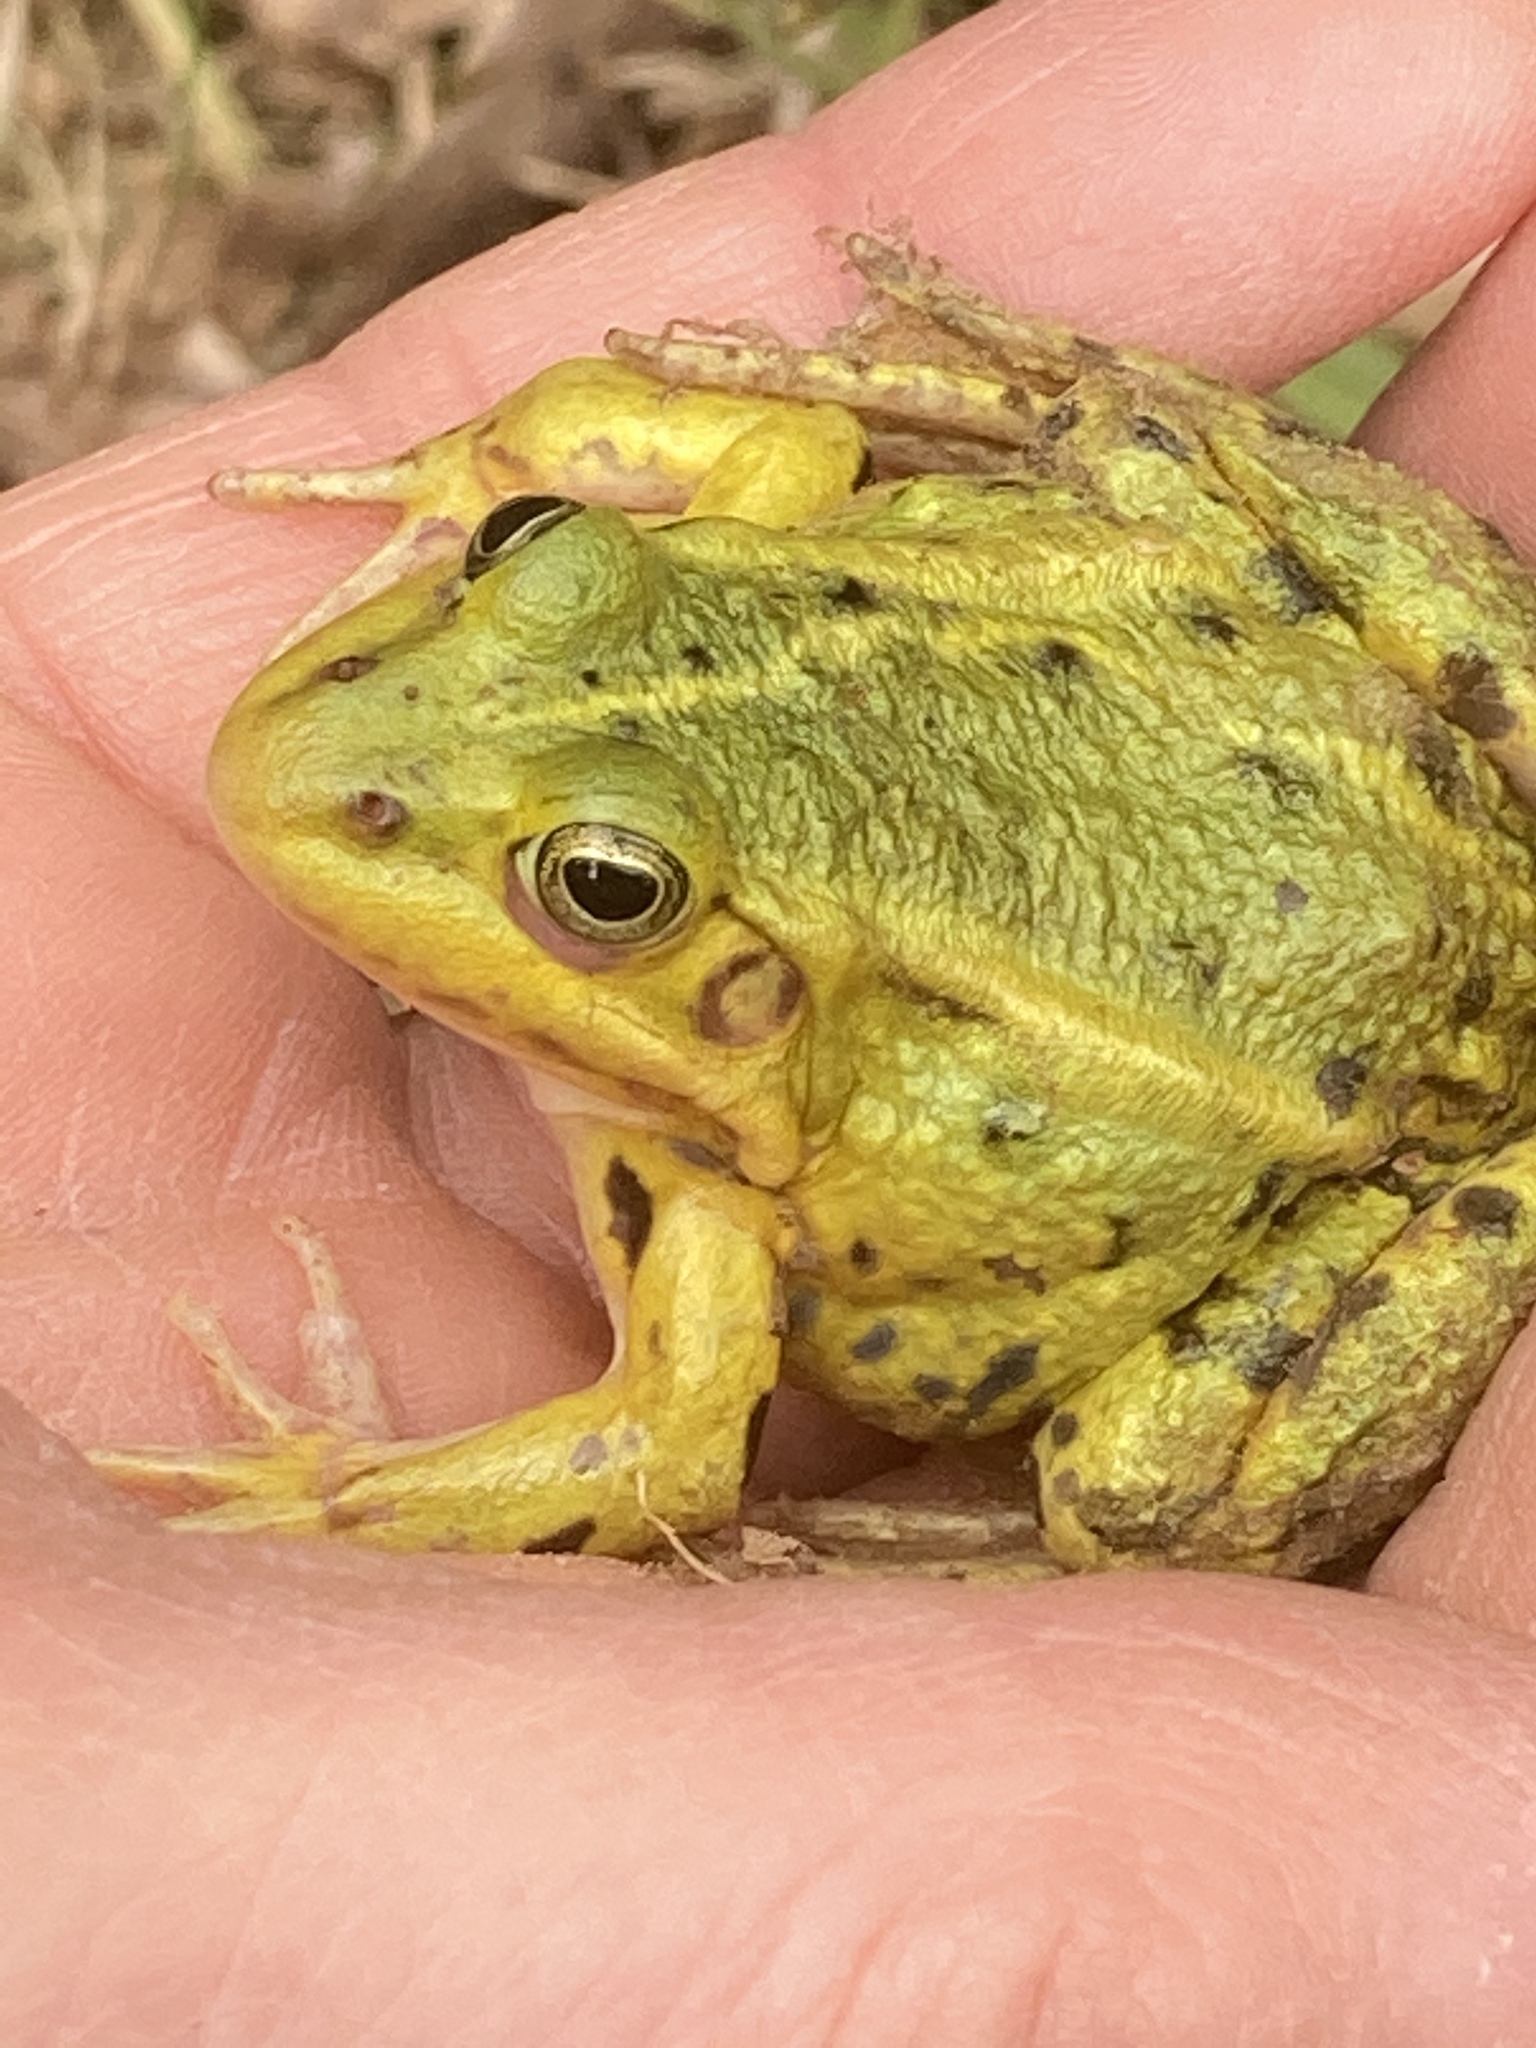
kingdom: Animalia
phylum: Chordata
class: Amphibia
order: Anura
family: Ranidae
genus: Pelophylax
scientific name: Pelophylax lessonae
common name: Pool frog
